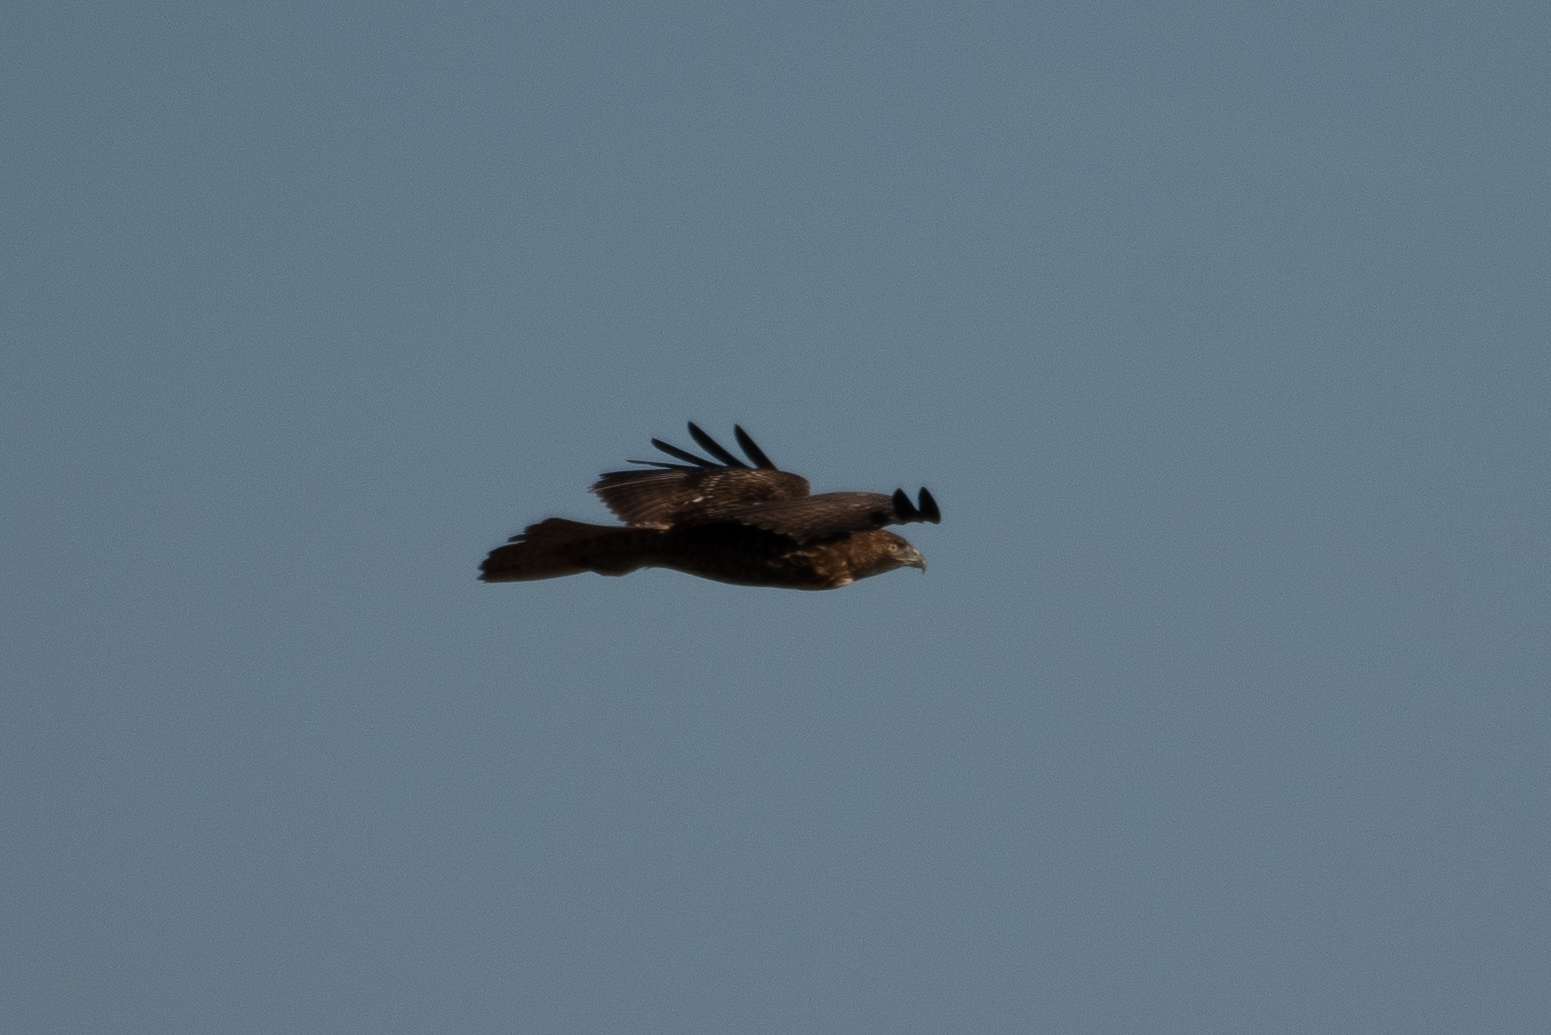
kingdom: Animalia
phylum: Chordata
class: Aves
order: Accipitriformes
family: Accipitridae
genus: Buteo
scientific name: Buteo jamaicensis
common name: Red-tailed hawk
